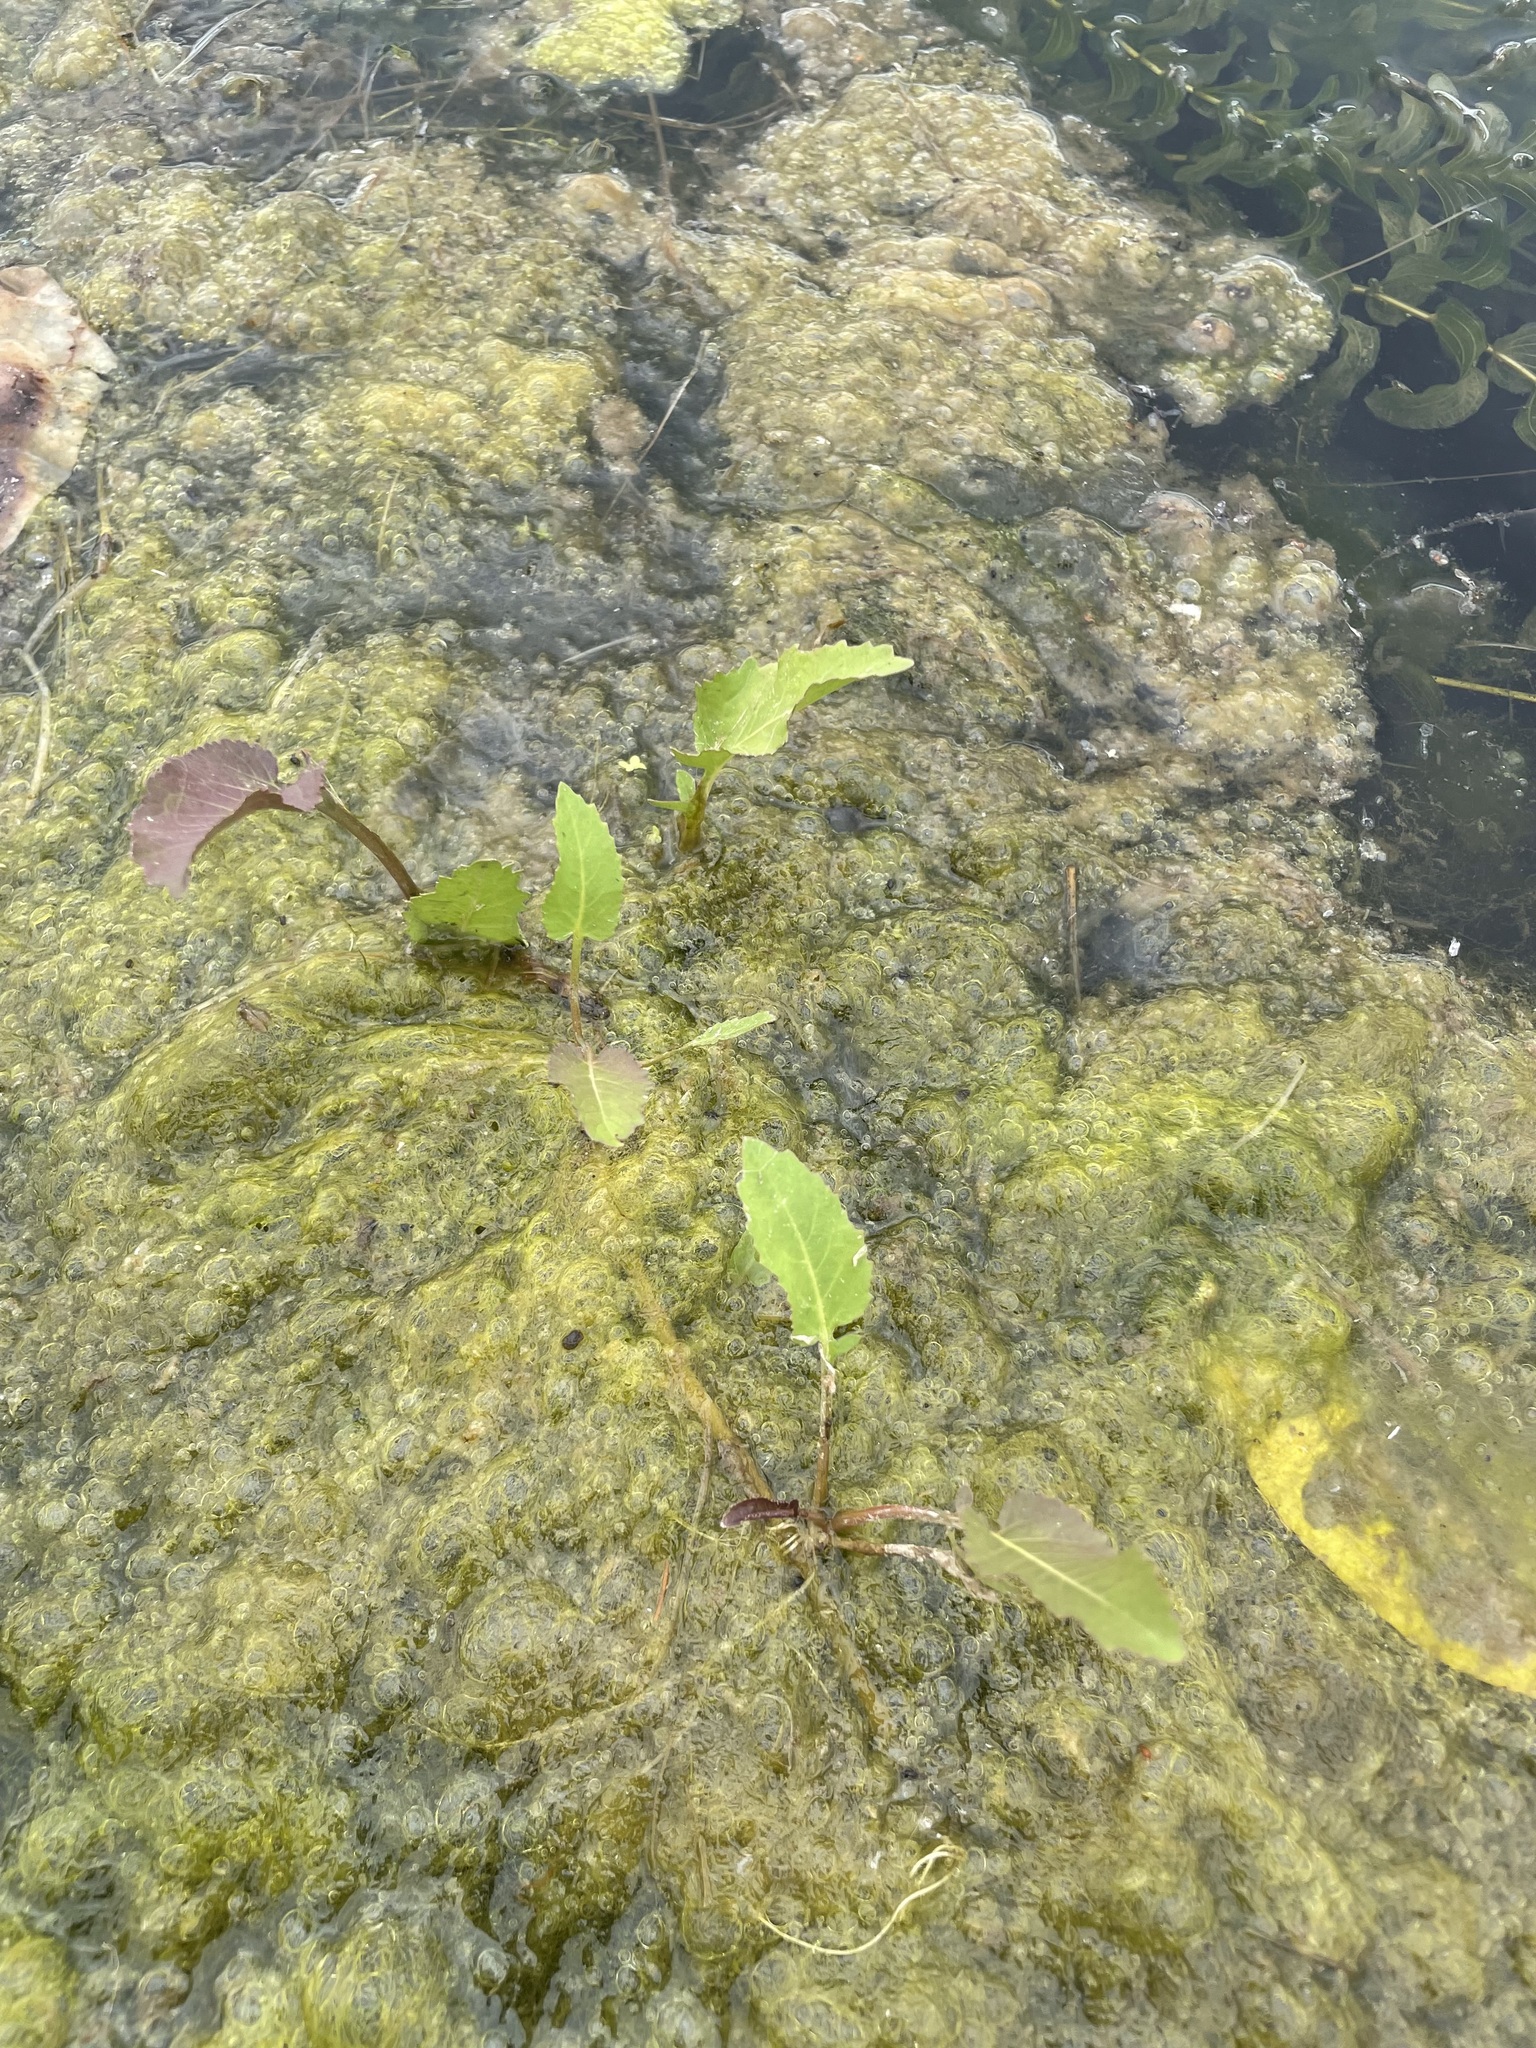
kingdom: Plantae
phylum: Tracheophyta
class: Magnoliopsida
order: Brassicales
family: Brassicaceae
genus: Rorippa
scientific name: Rorippa amphibia
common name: Great yellow-cress
